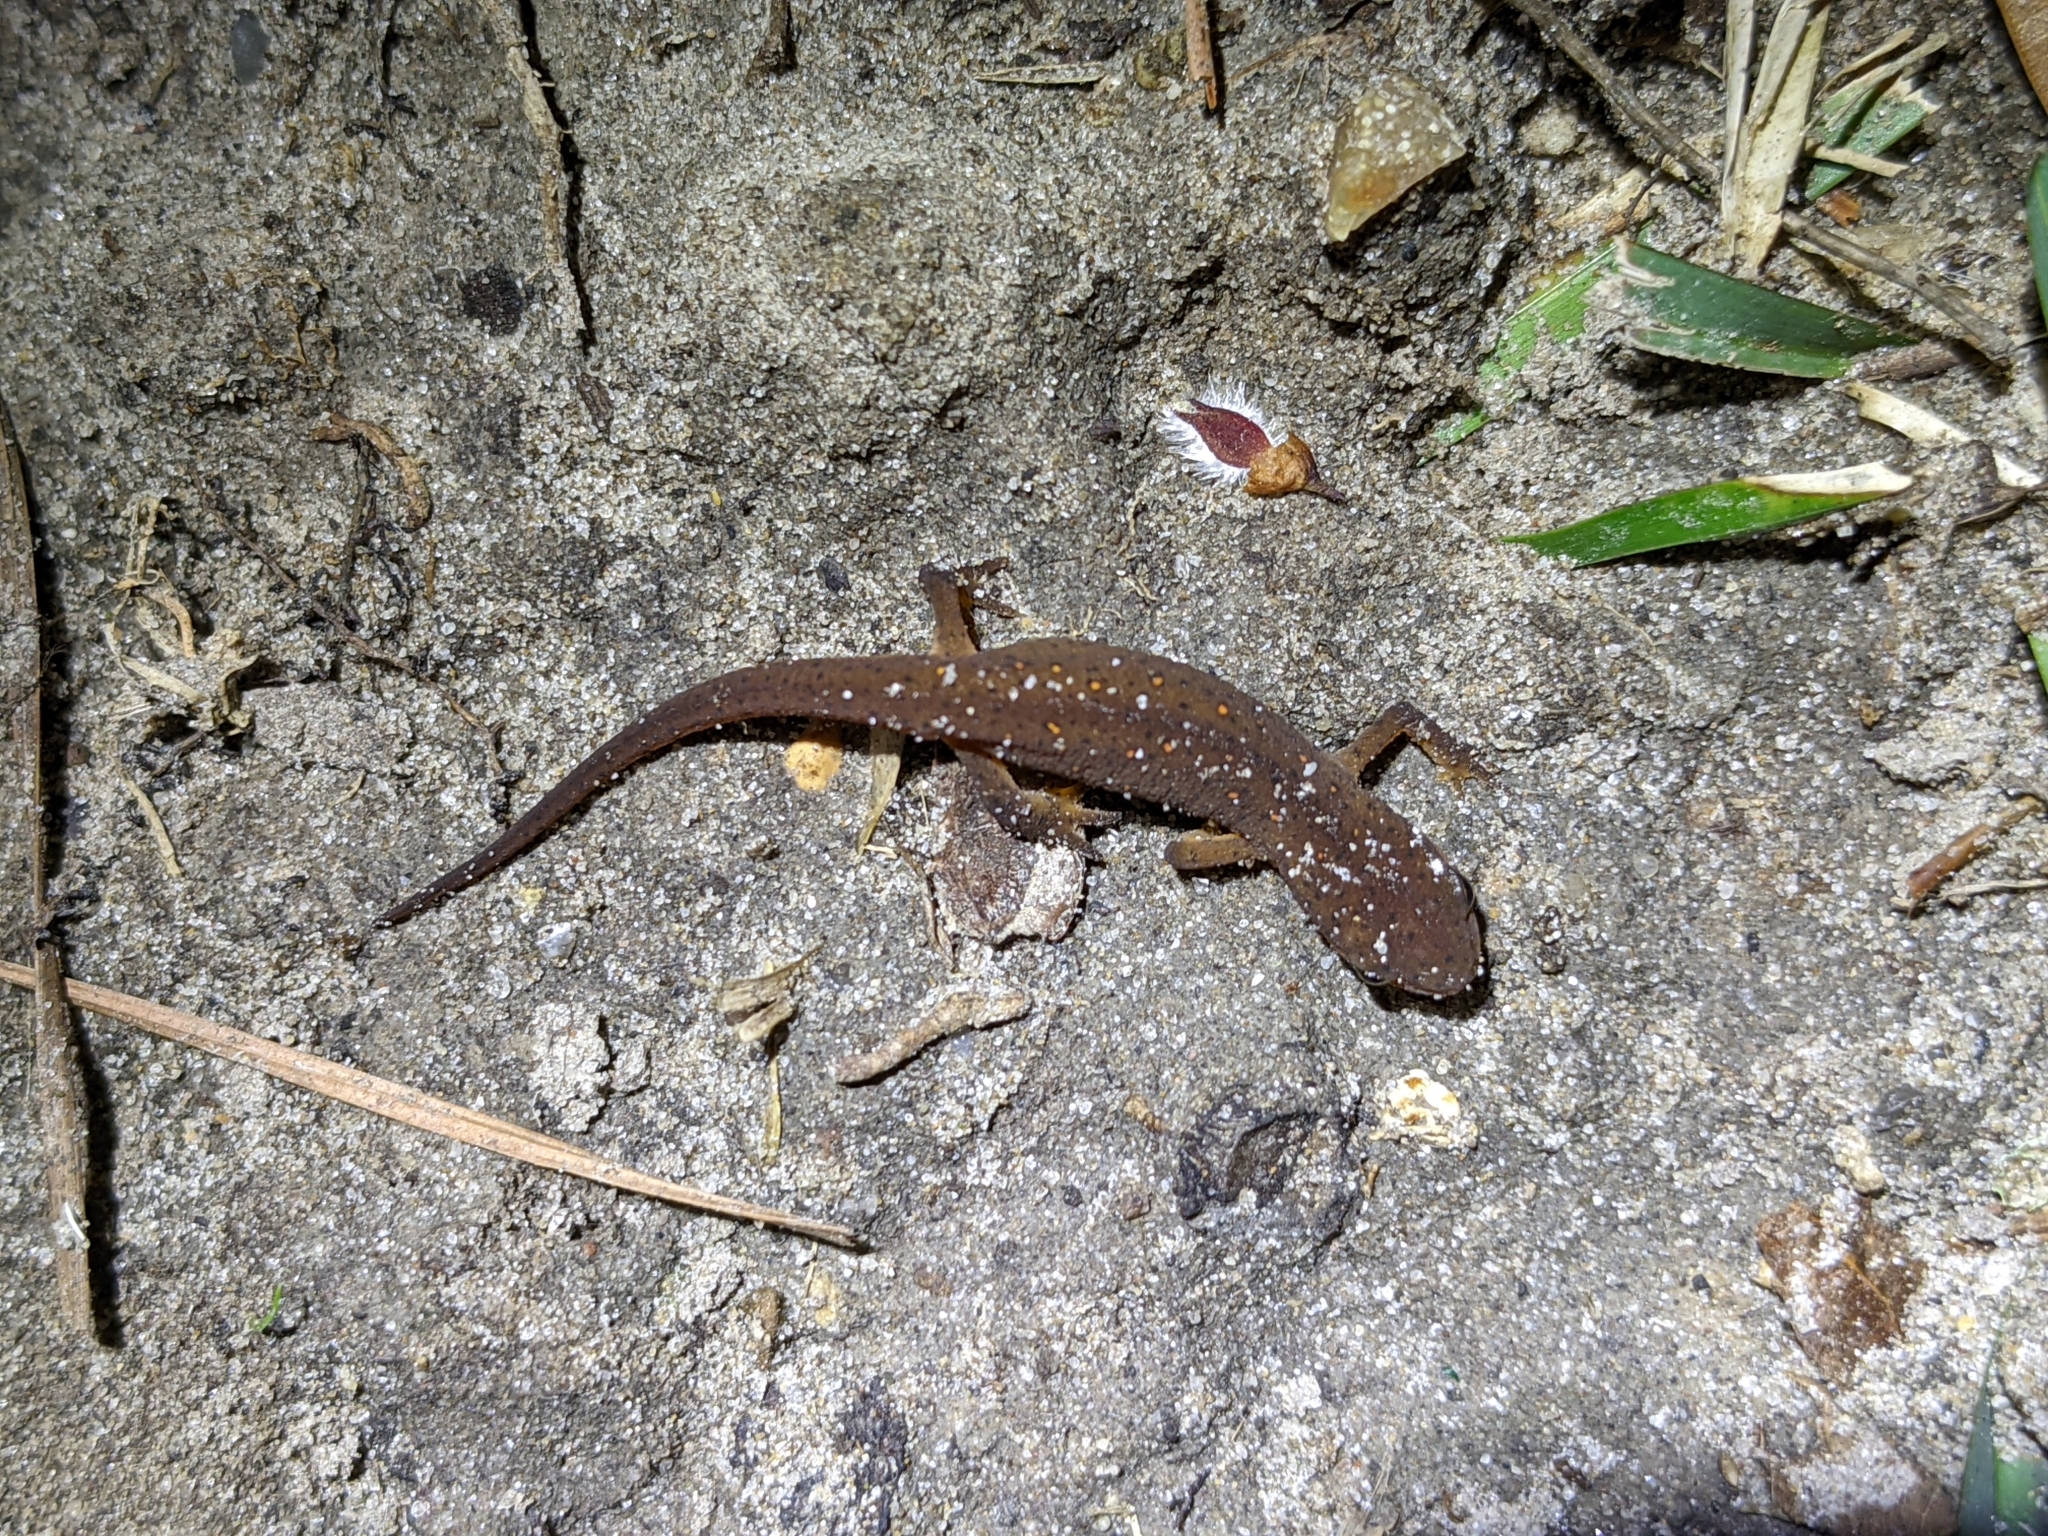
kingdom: Animalia
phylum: Chordata
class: Amphibia
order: Caudata
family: Salamandridae
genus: Notophthalmus
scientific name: Notophthalmus viridescens
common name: Eastern newt
